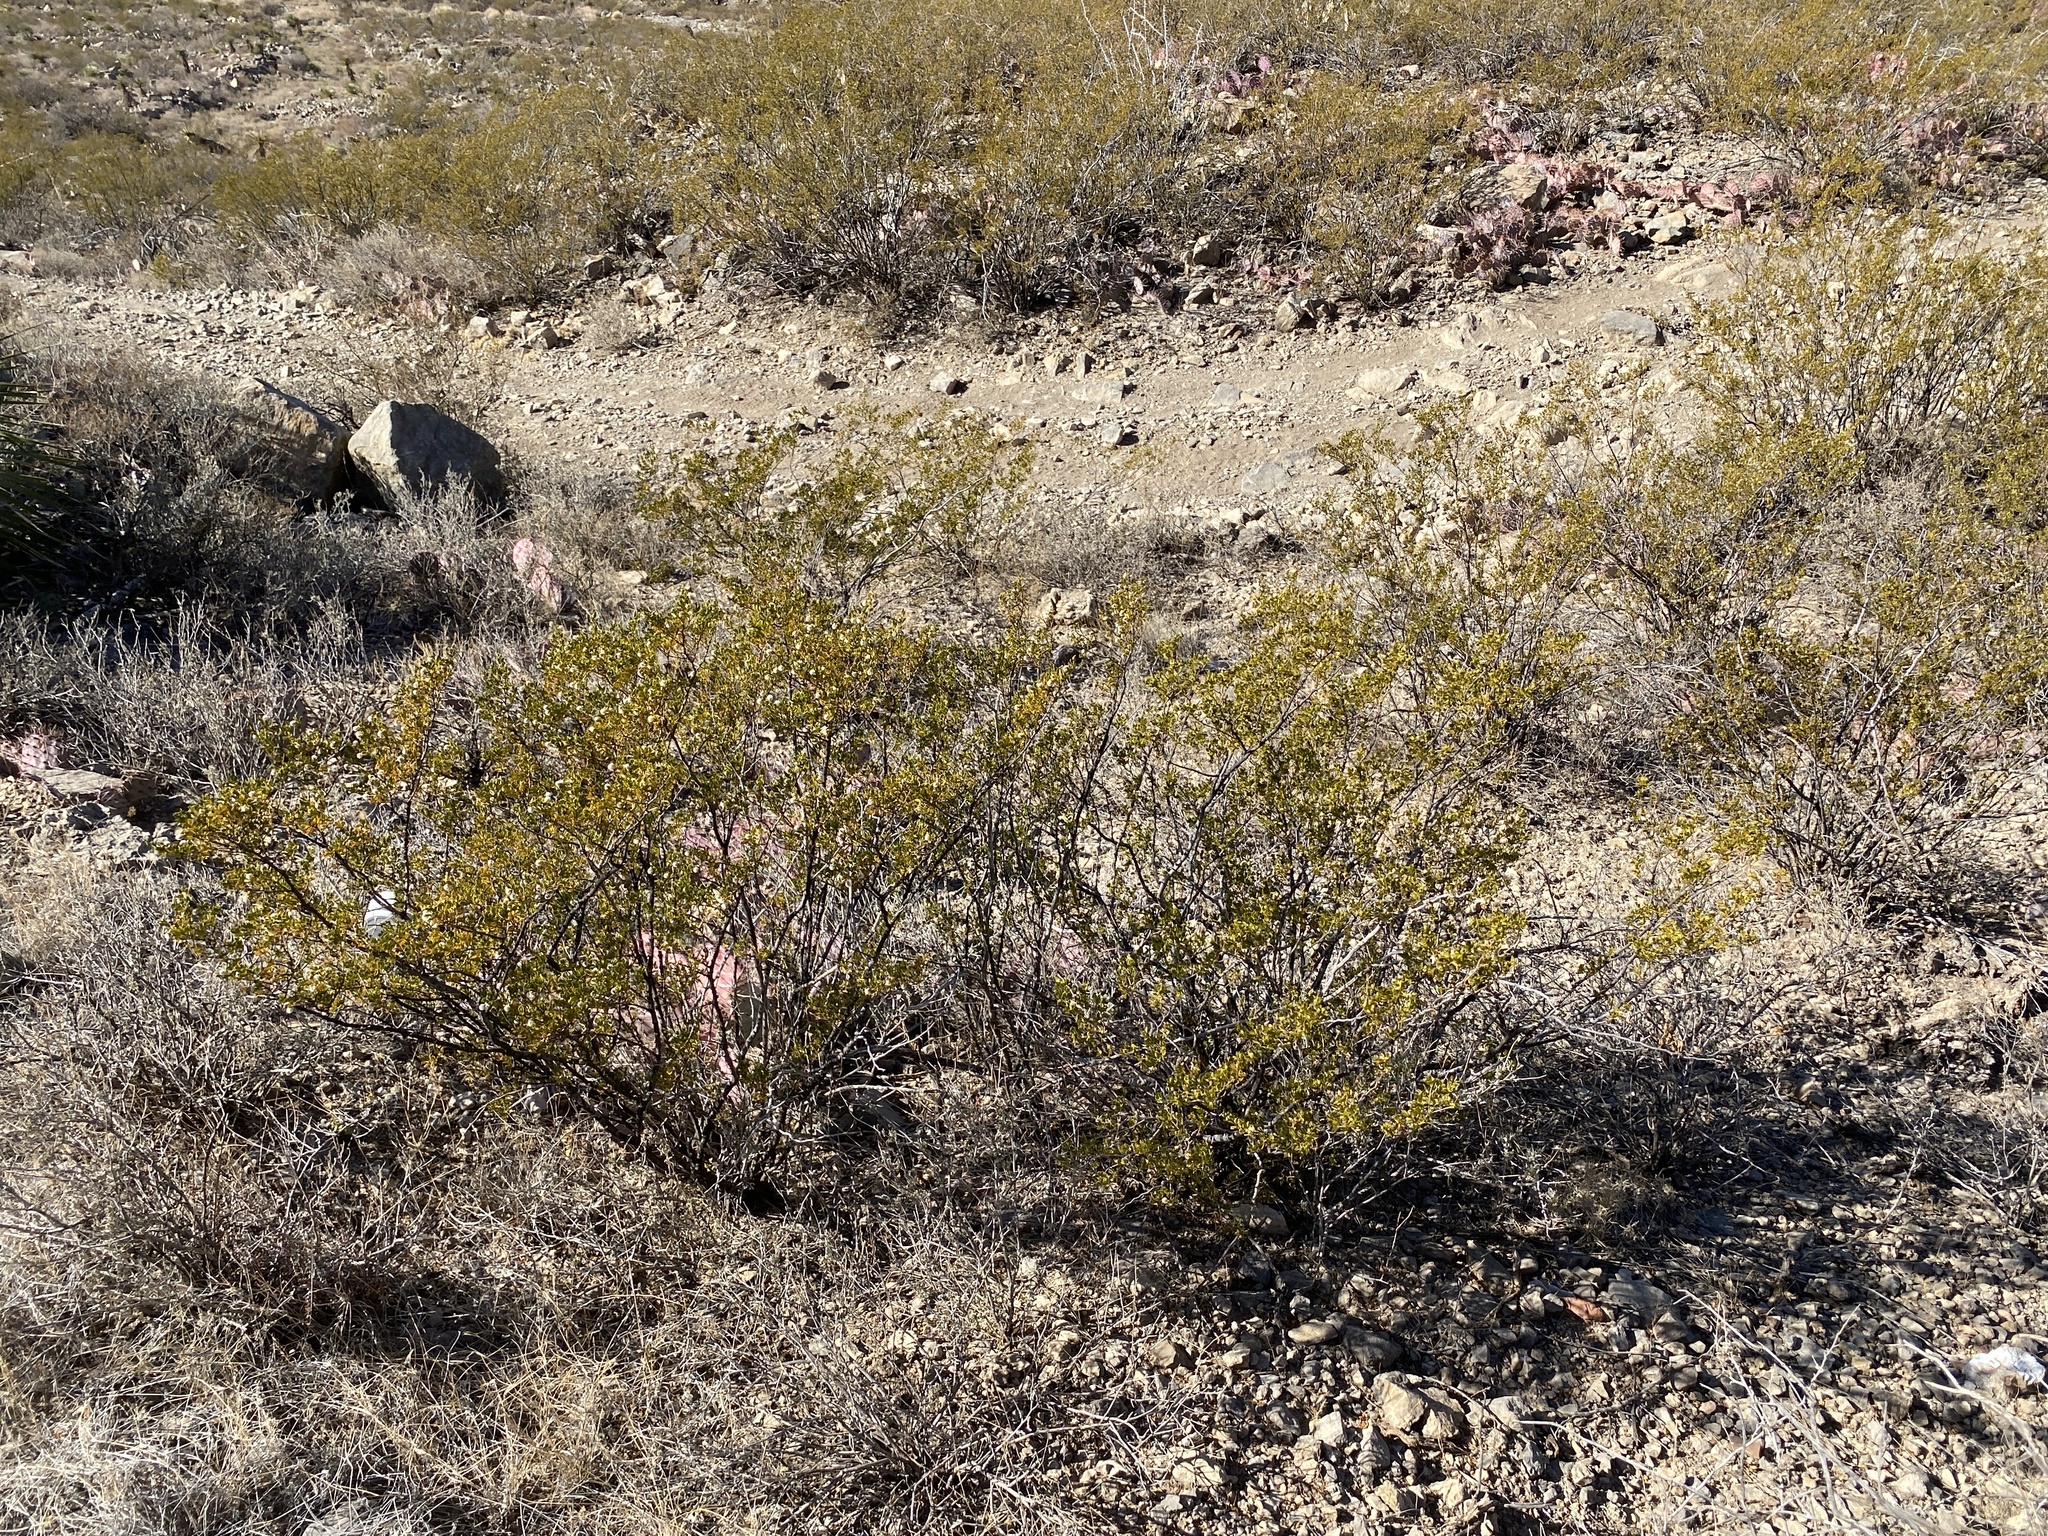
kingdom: Plantae
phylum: Tracheophyta
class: Magnoliopsida
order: Zygophyllales
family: Zygophyllaceae
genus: Larrea
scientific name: Larrea tridentata
